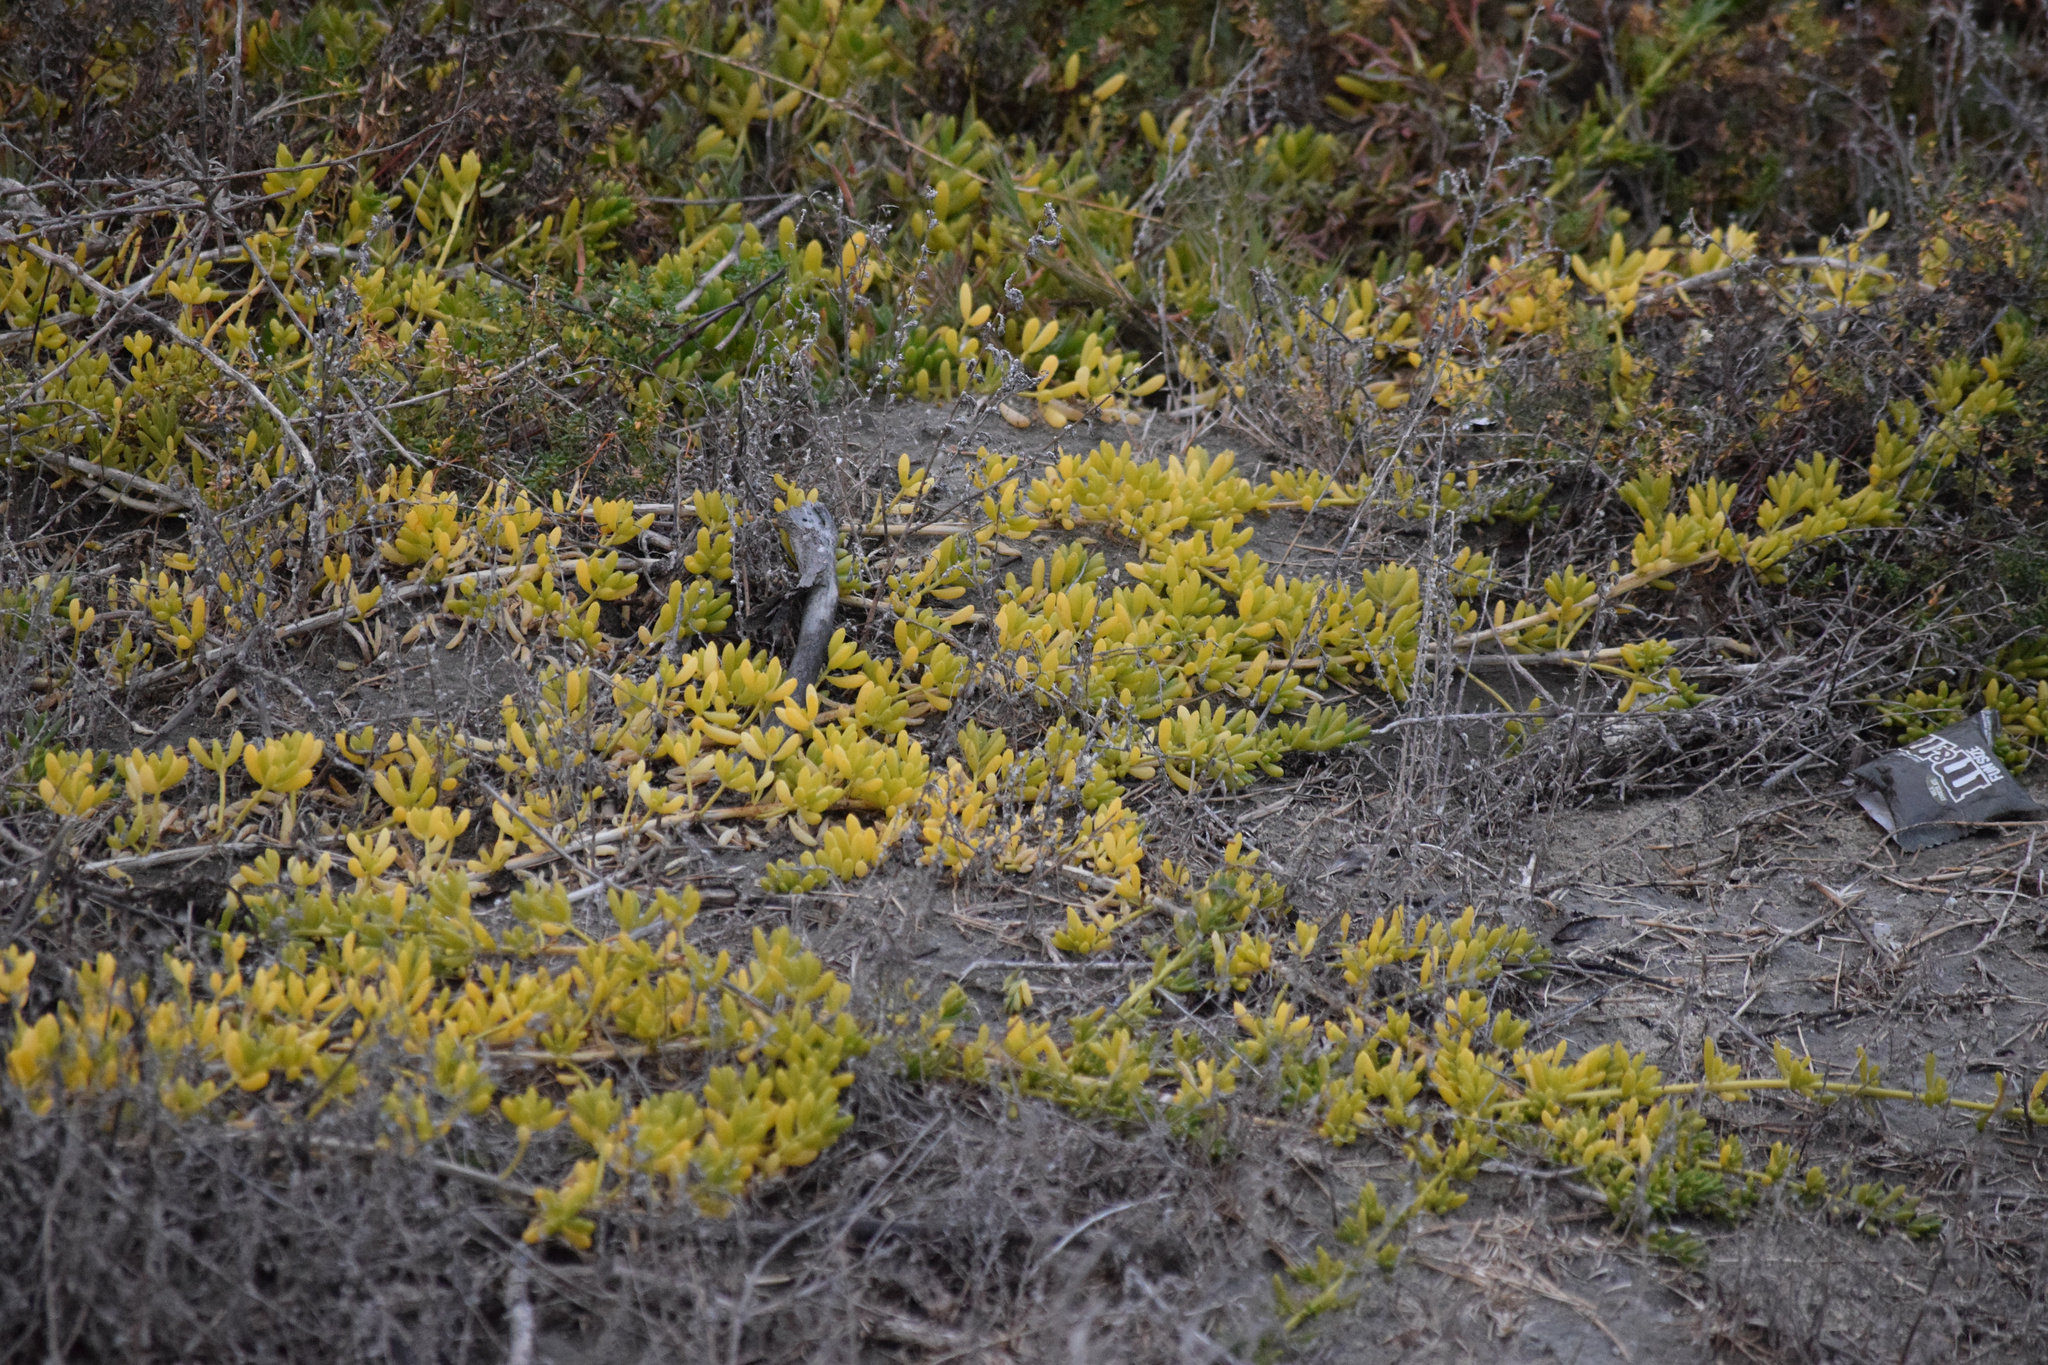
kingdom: Plantae
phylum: Tracheophyta
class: Magnoliopsida
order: Brassicales
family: Bataceae
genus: Batis
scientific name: Batis maritima
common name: Turtleweed
